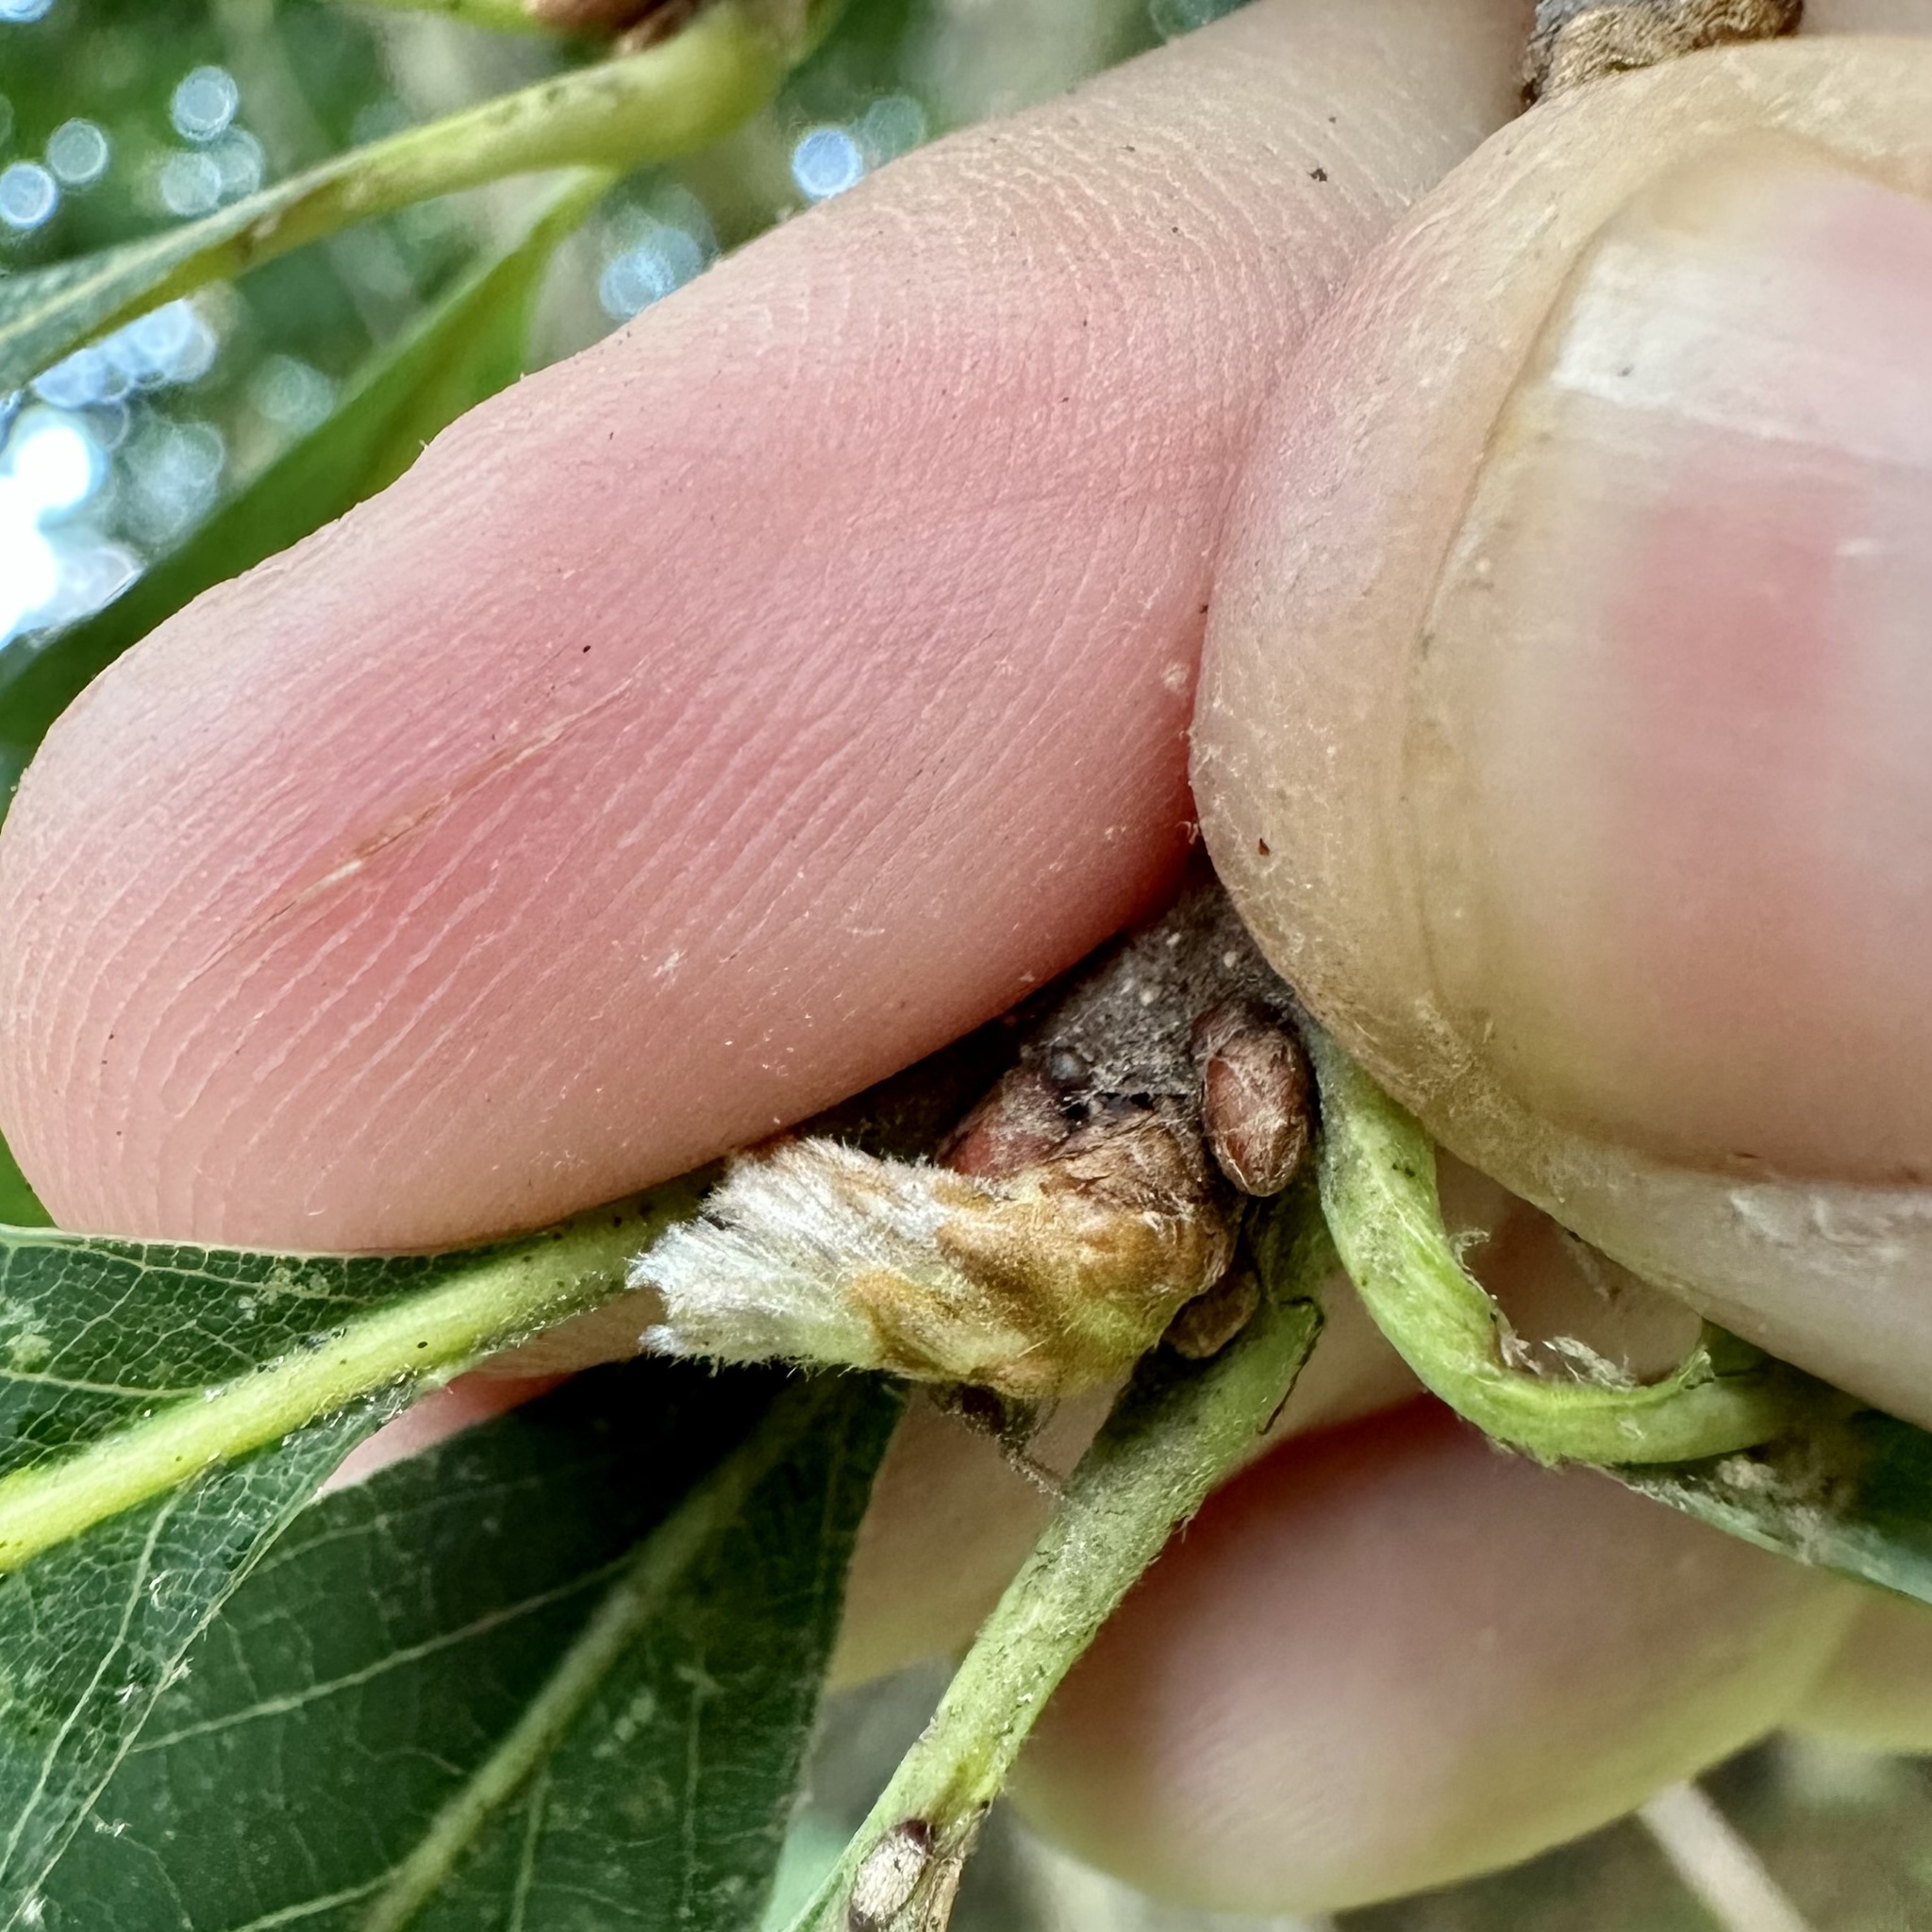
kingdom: Animalia
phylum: Arthropoda
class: Insecta
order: Hymenoptera
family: Cynipidae
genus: Andricus
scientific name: Andricus
